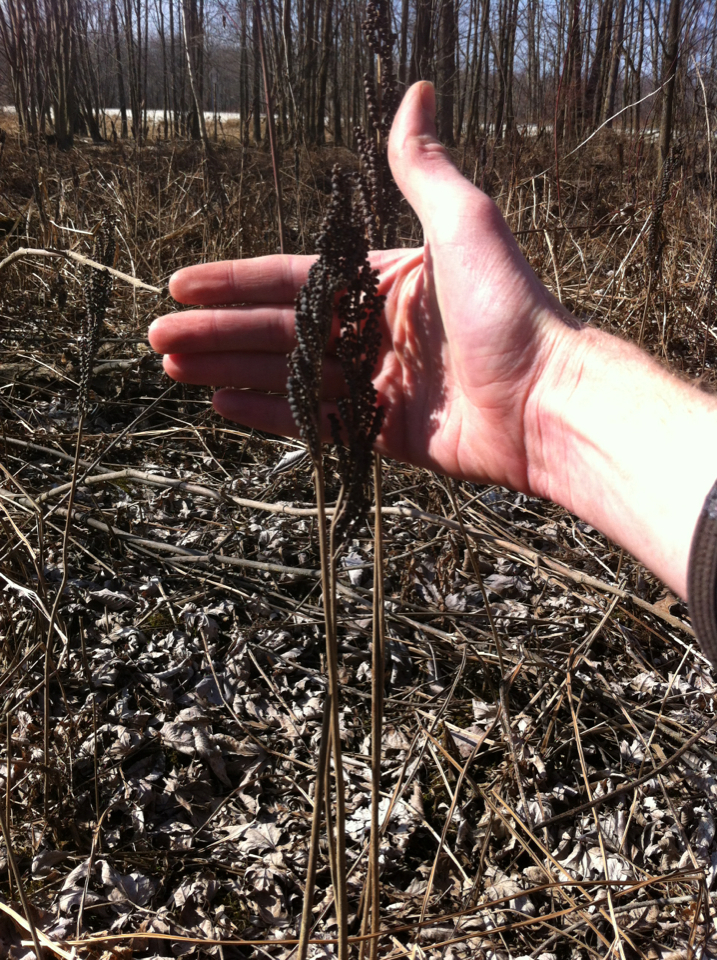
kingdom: Plantae
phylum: Tracheophyta
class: Polypodiopsida
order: Polypodiales
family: Onocleaceae
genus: Onoclea
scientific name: Onoclea sensibilis
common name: Sensitive fern
